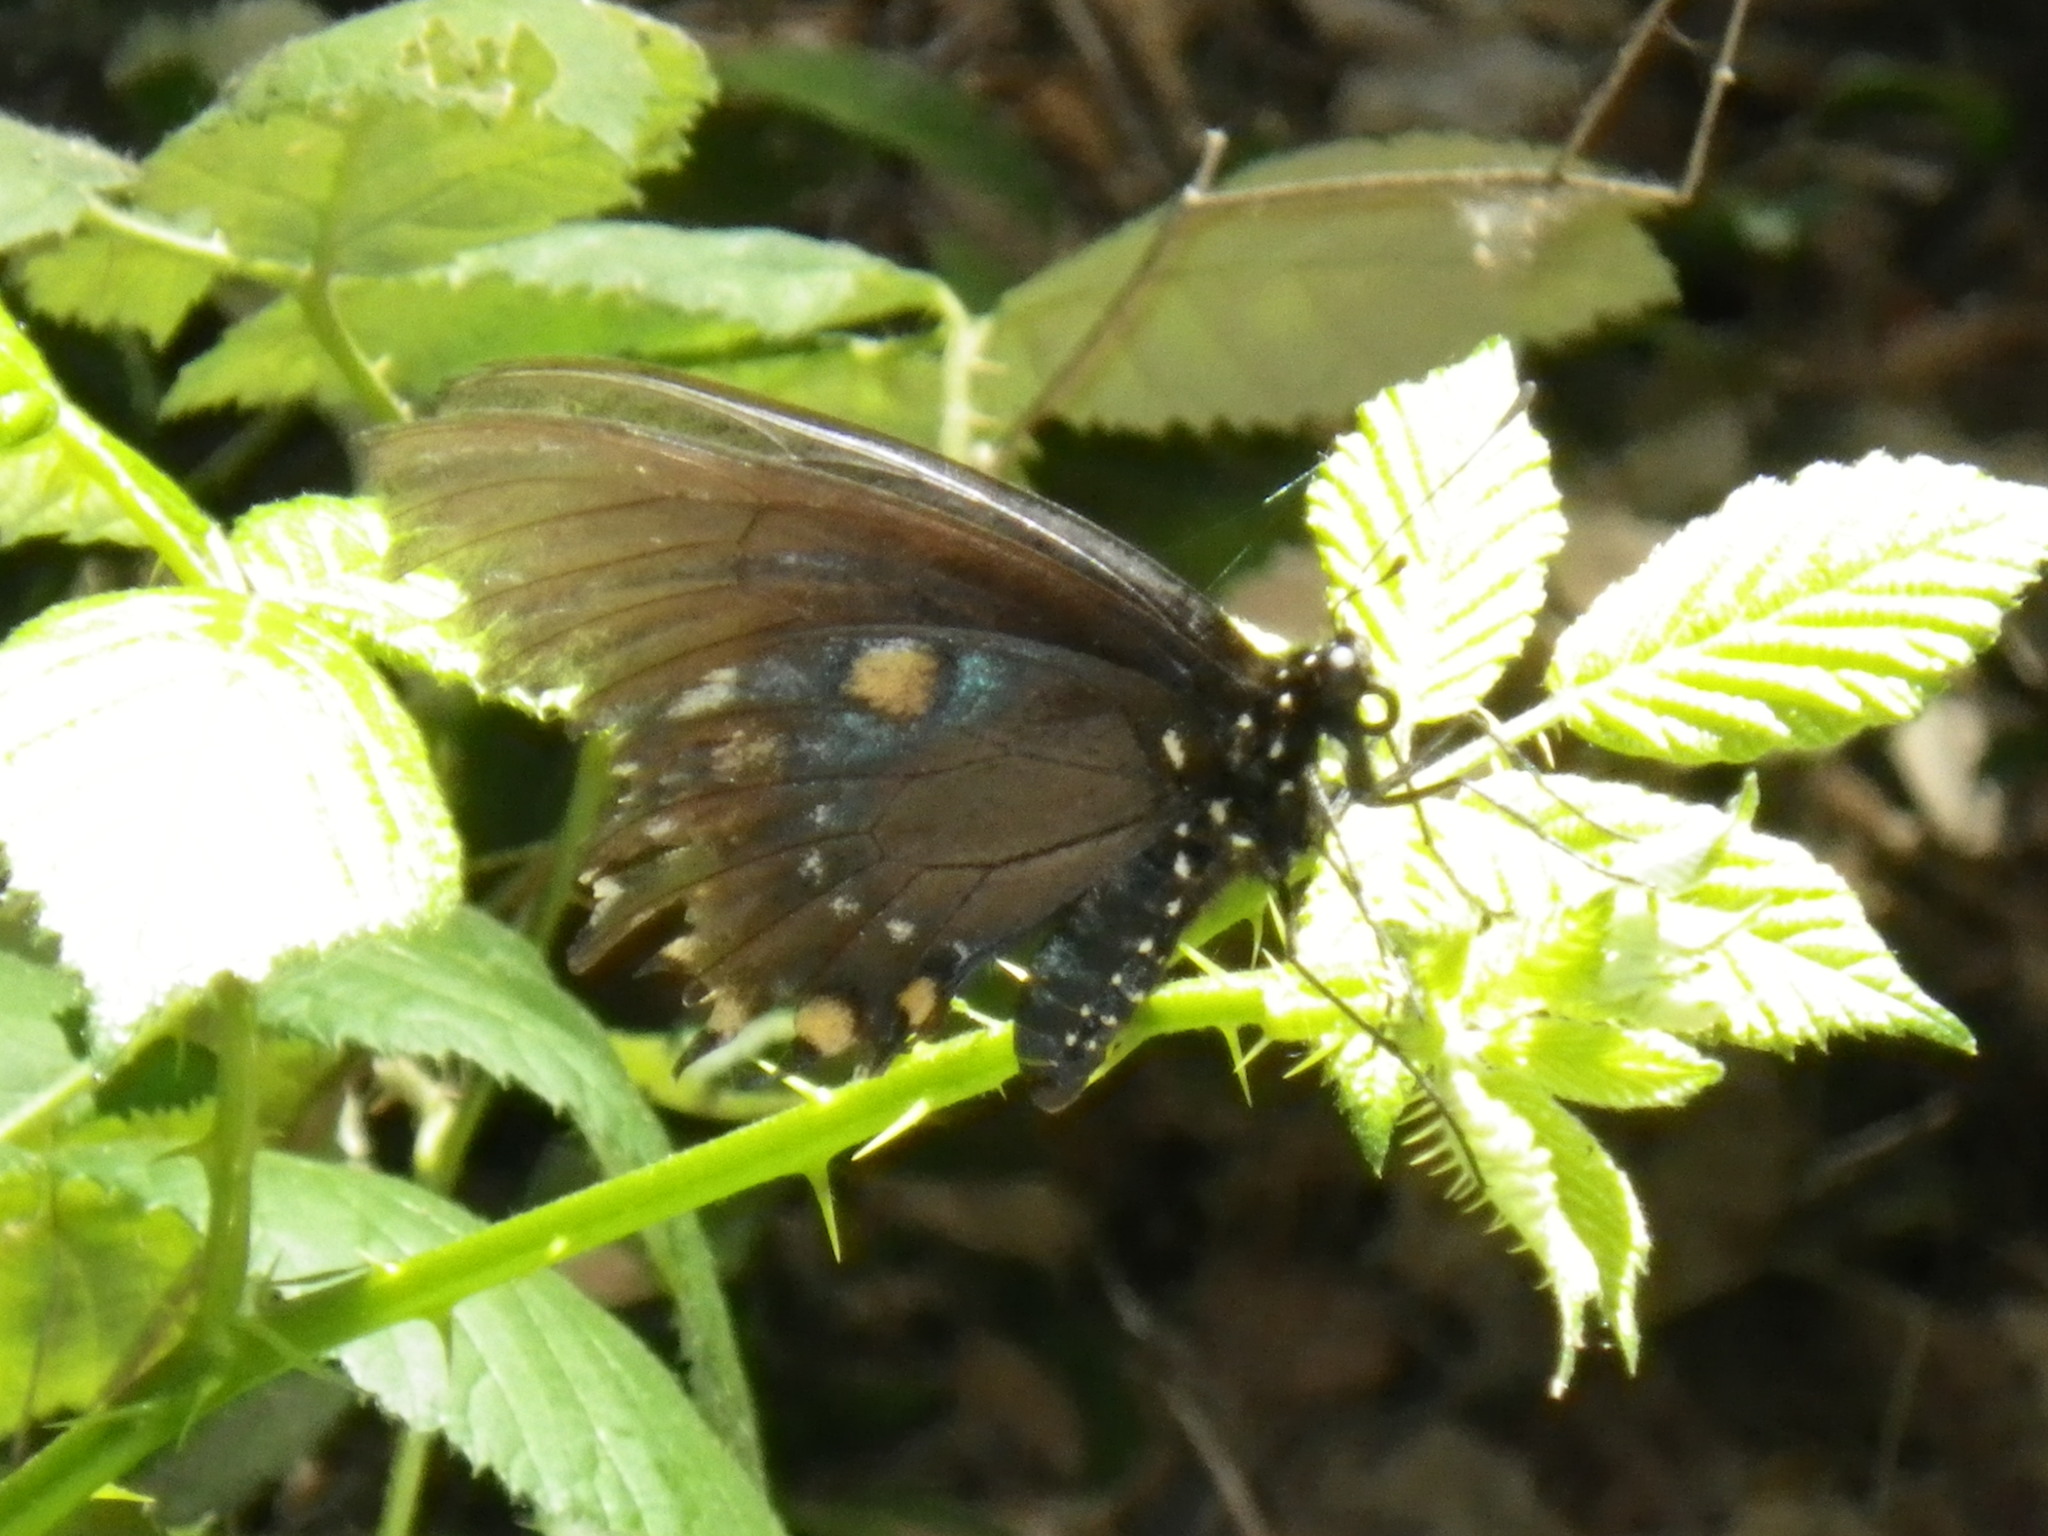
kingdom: Animalia
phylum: Arthropoda
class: Insecta
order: Lepidoptera
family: Papilionidae
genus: Battus
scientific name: Battus philenor
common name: Pipevine swallowtail
